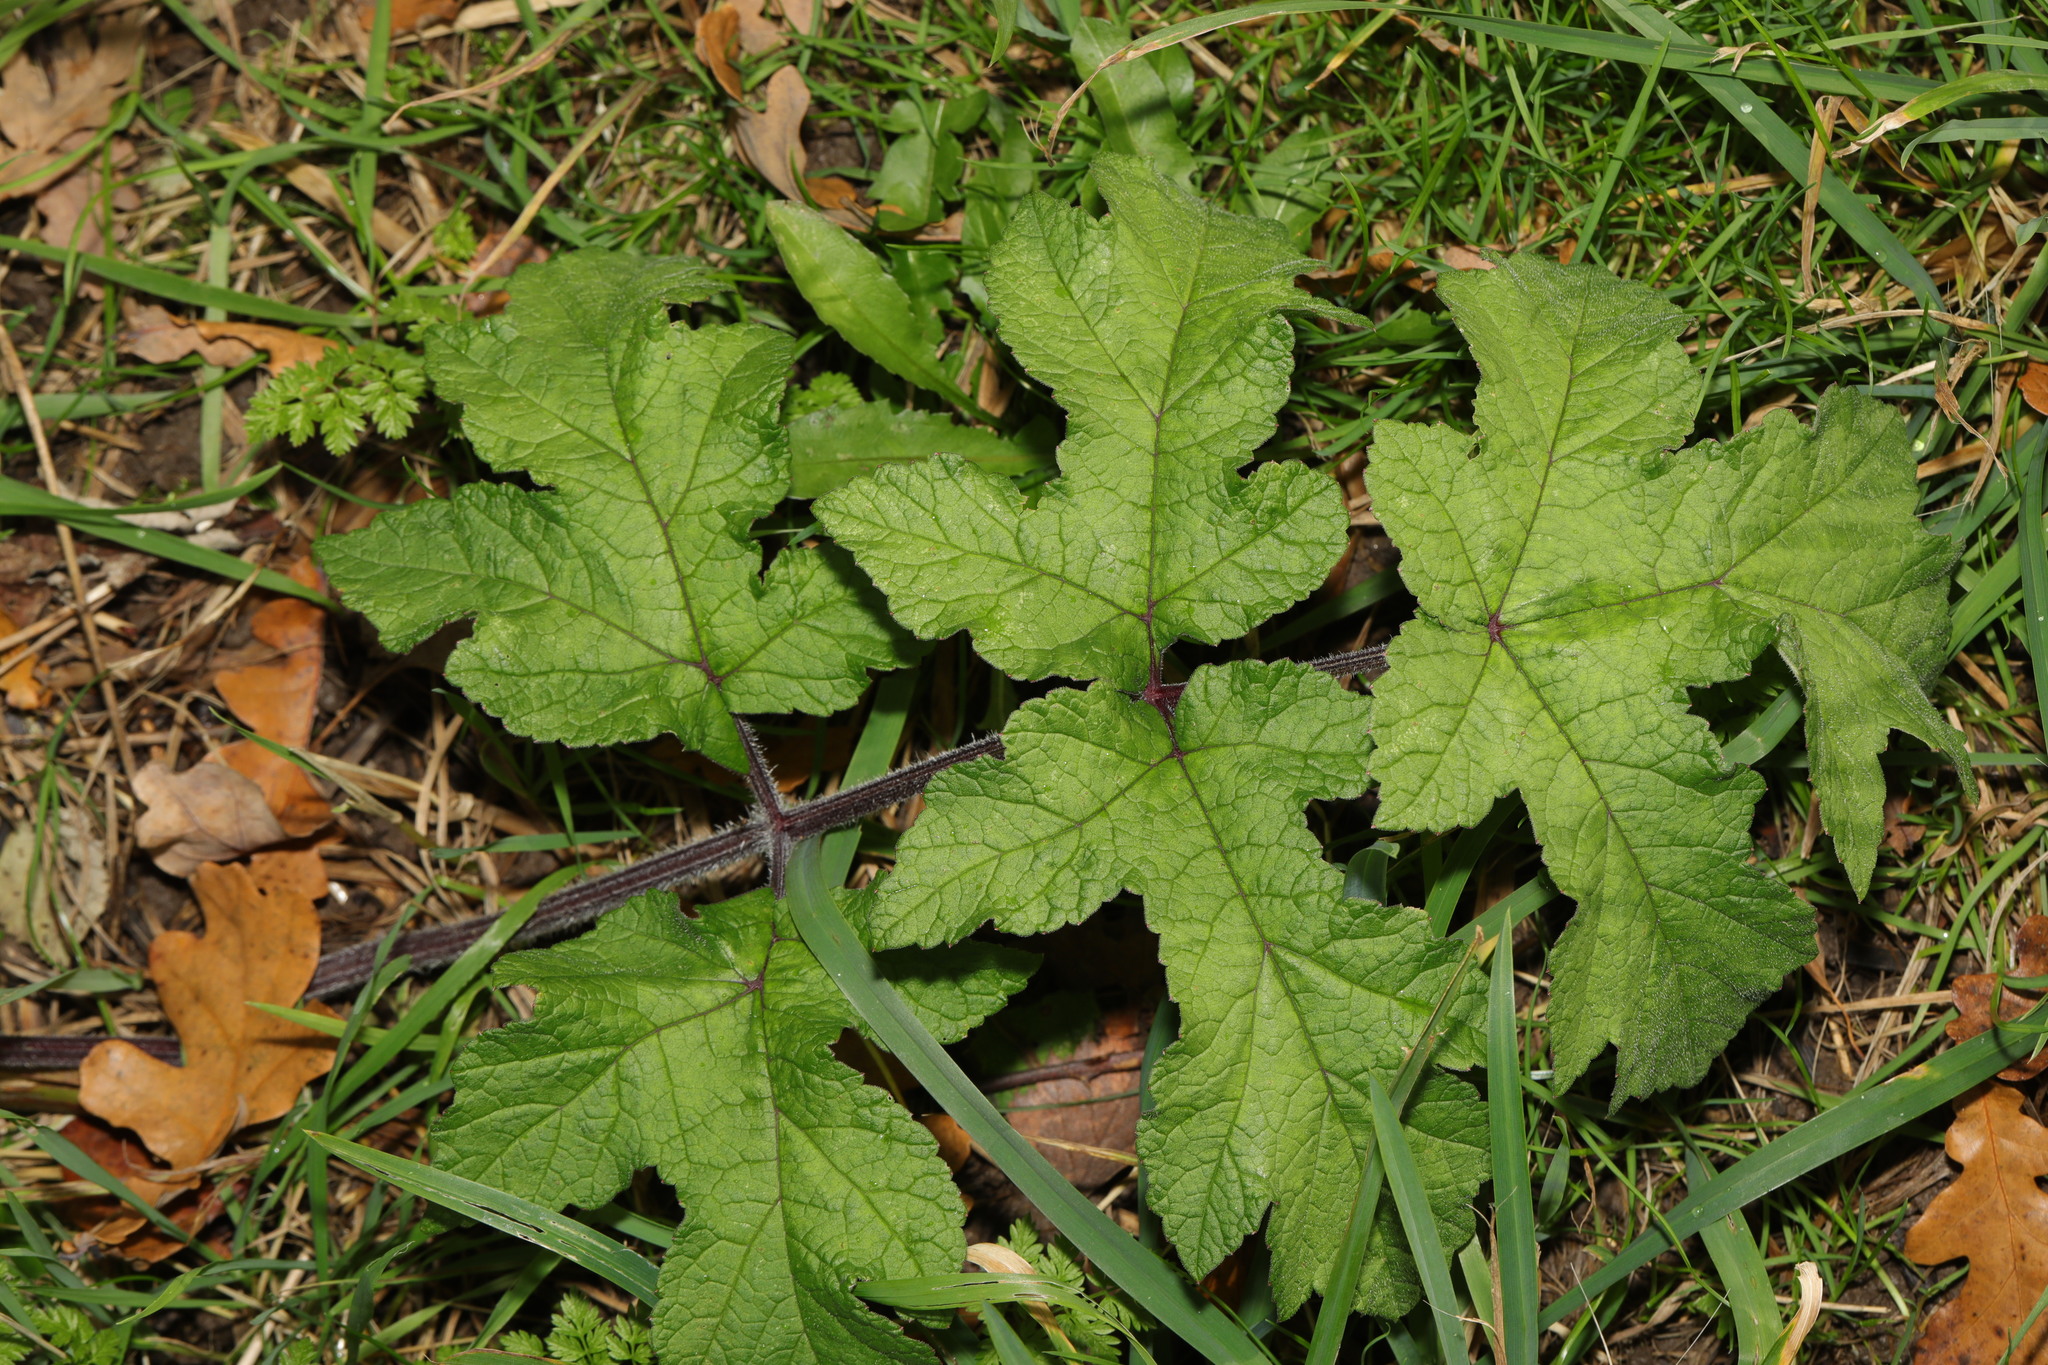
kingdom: Plantae
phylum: Tracheophyta
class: Magnoliopsida
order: Apiales
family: Apiaceae
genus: Heracleum
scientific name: Heracleum sphondylium
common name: Hogweed
